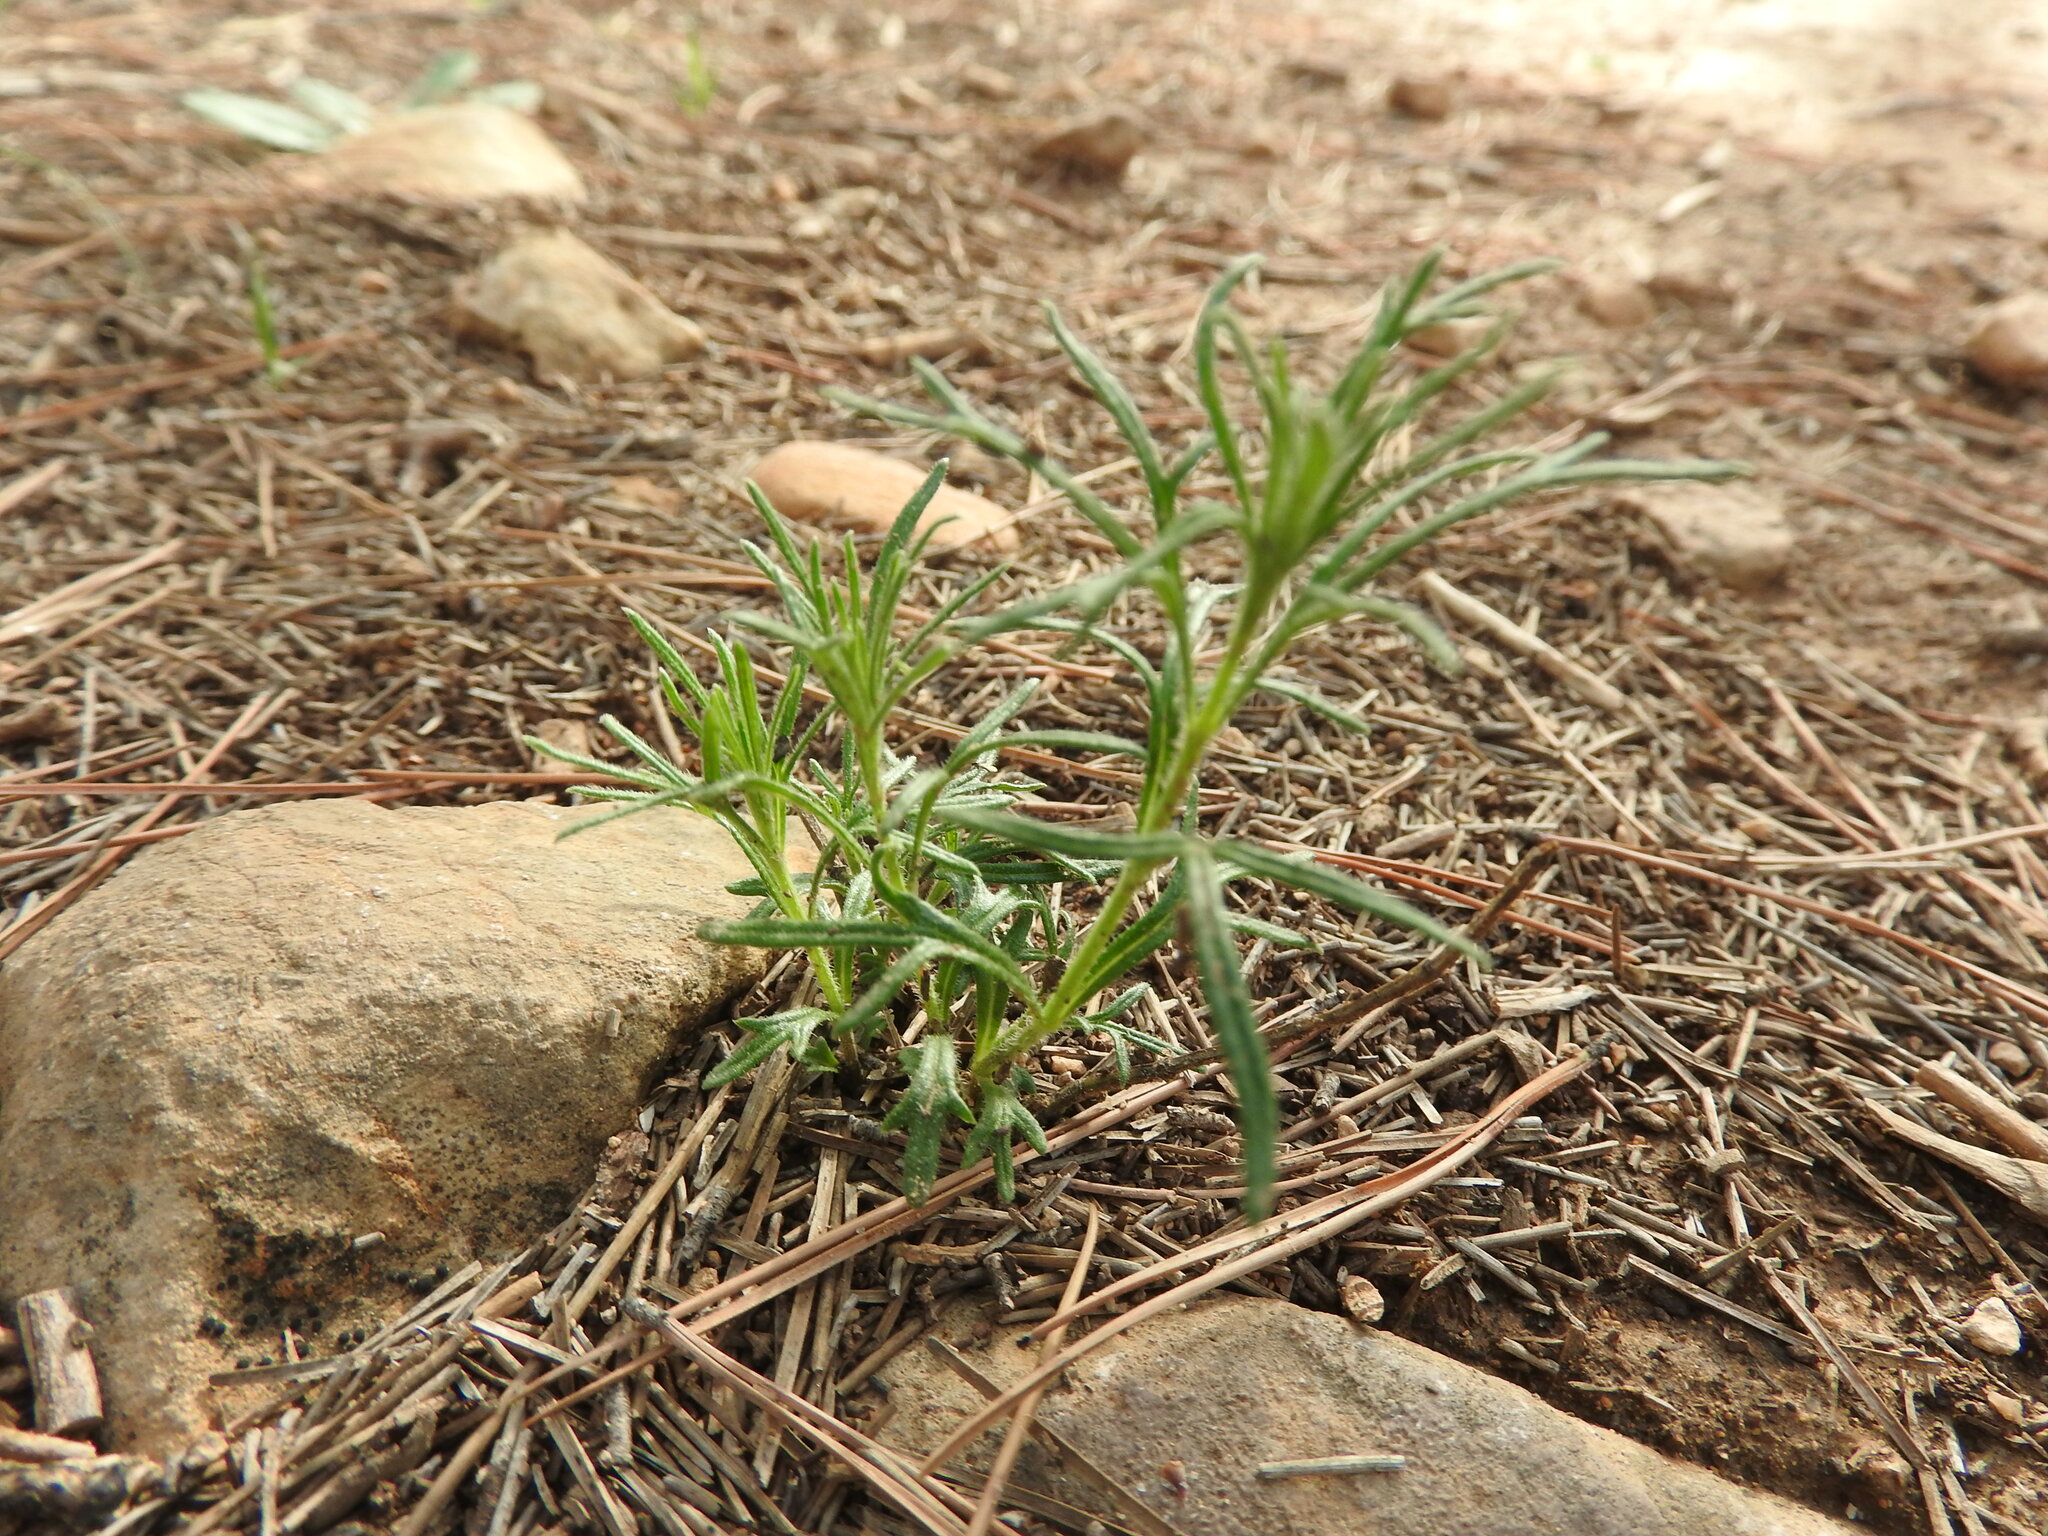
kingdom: Plantae
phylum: Tracheophyta
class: Magnoliopsida
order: Lamiales
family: Lamiaceae
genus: Teucrium
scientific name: Teucrium pseudochamaepitys
